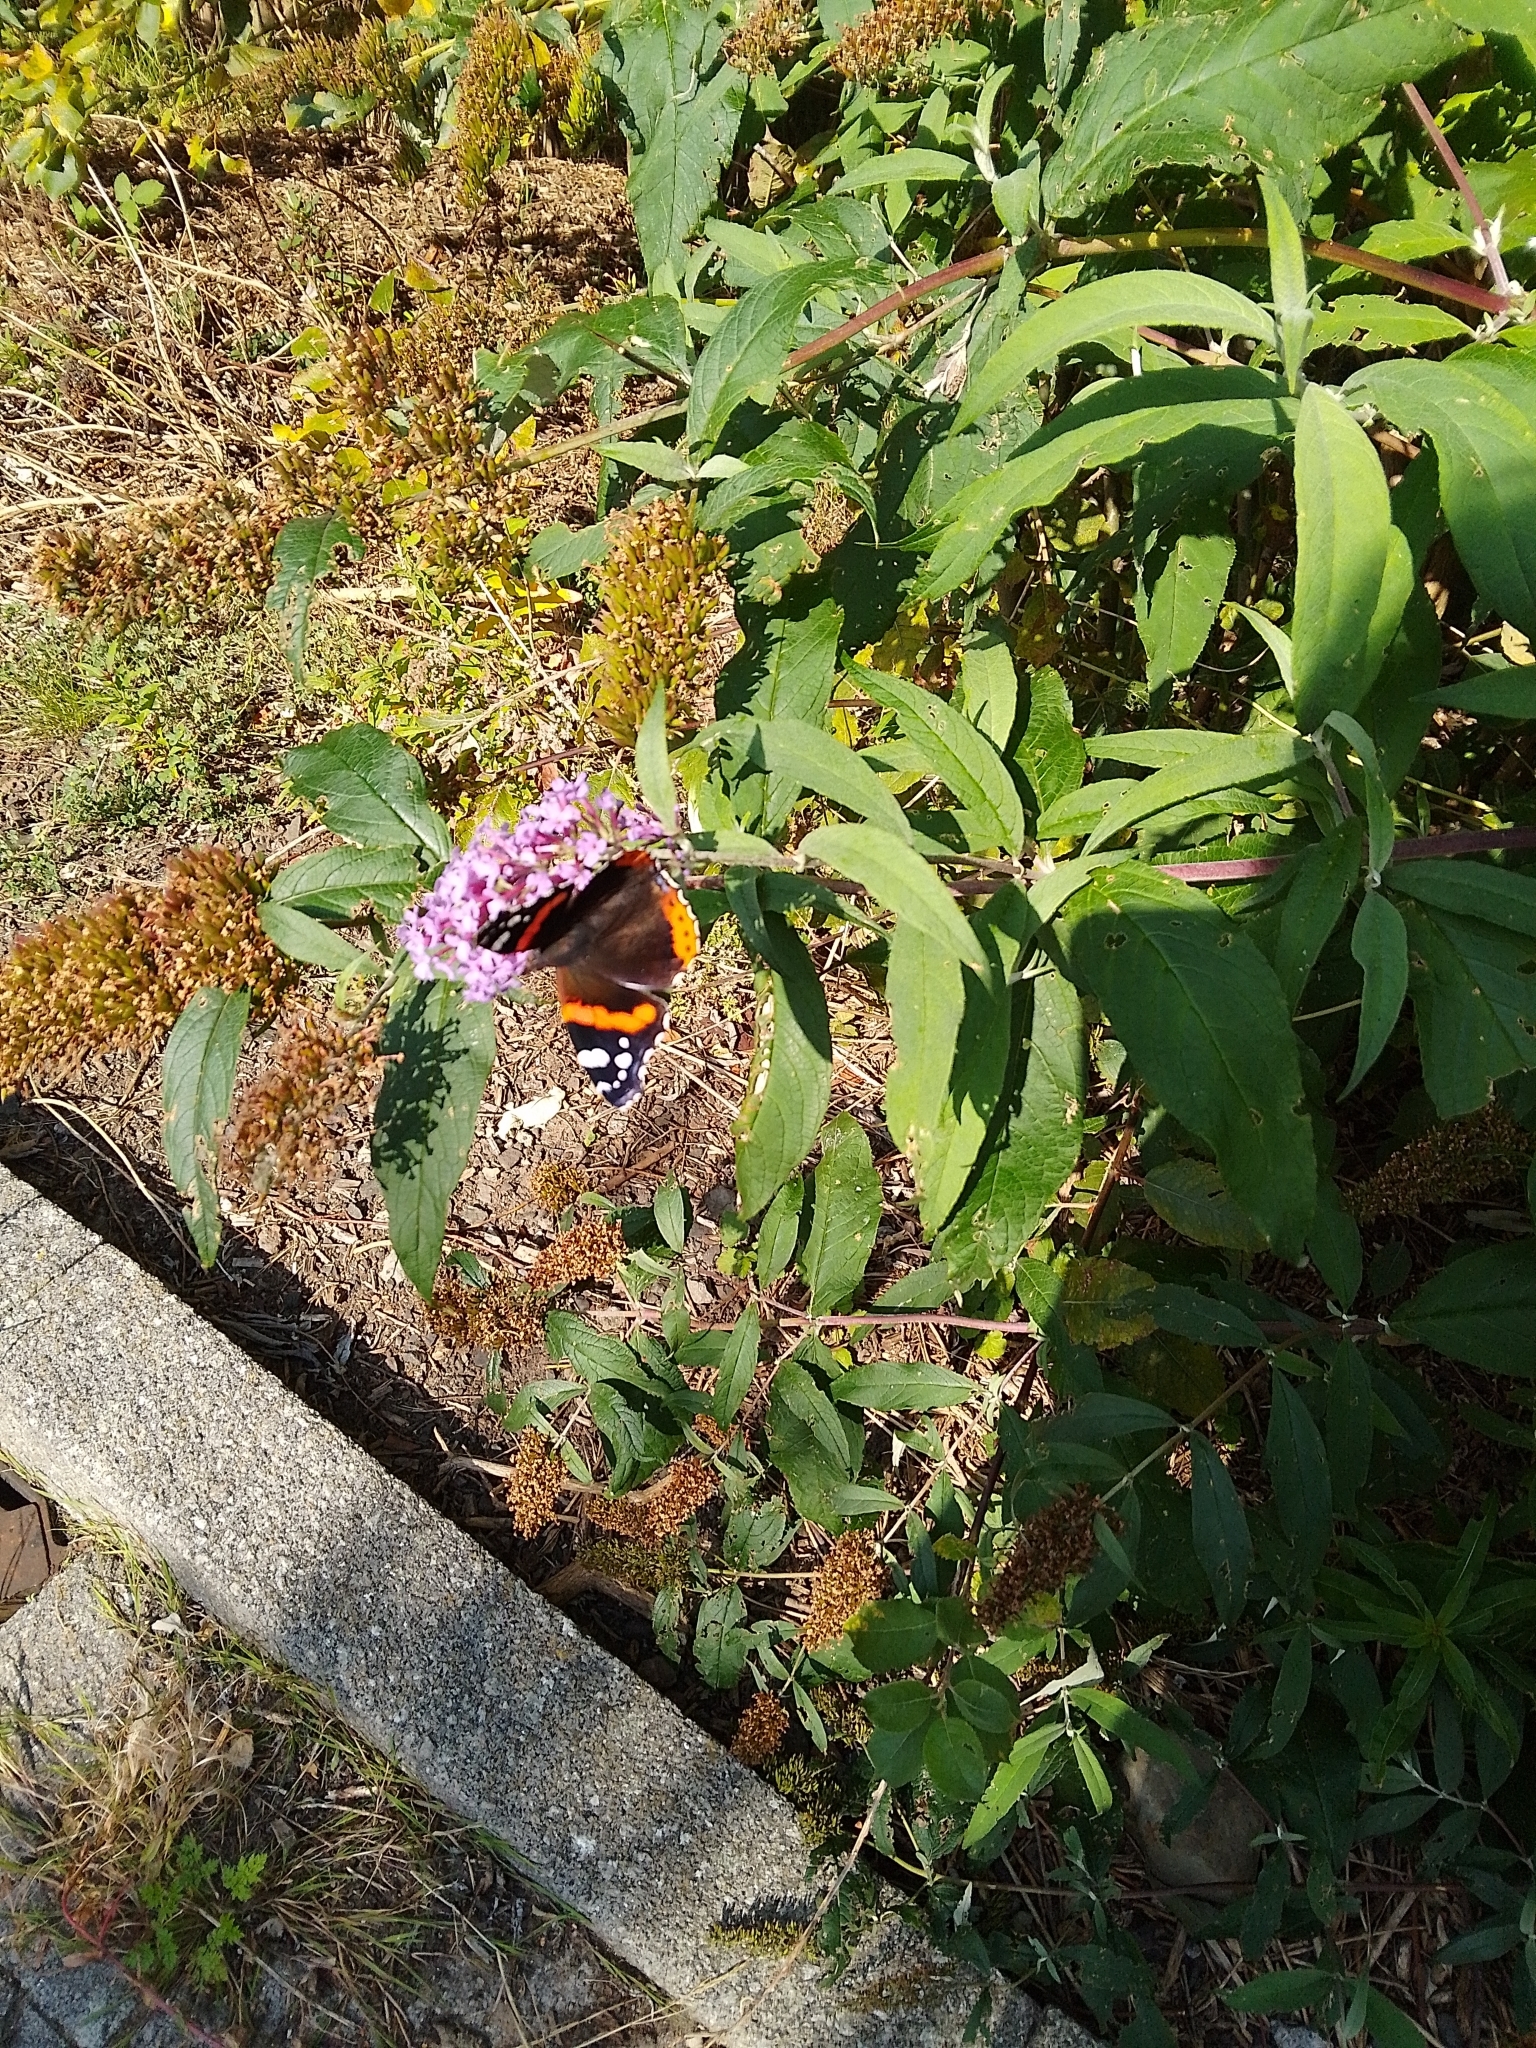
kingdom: Animalia
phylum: Arthropoda
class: Insecta
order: Lepidoptera
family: Nymphalidae
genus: Vanessa
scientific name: Vanessa atalanta
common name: Red admiral
